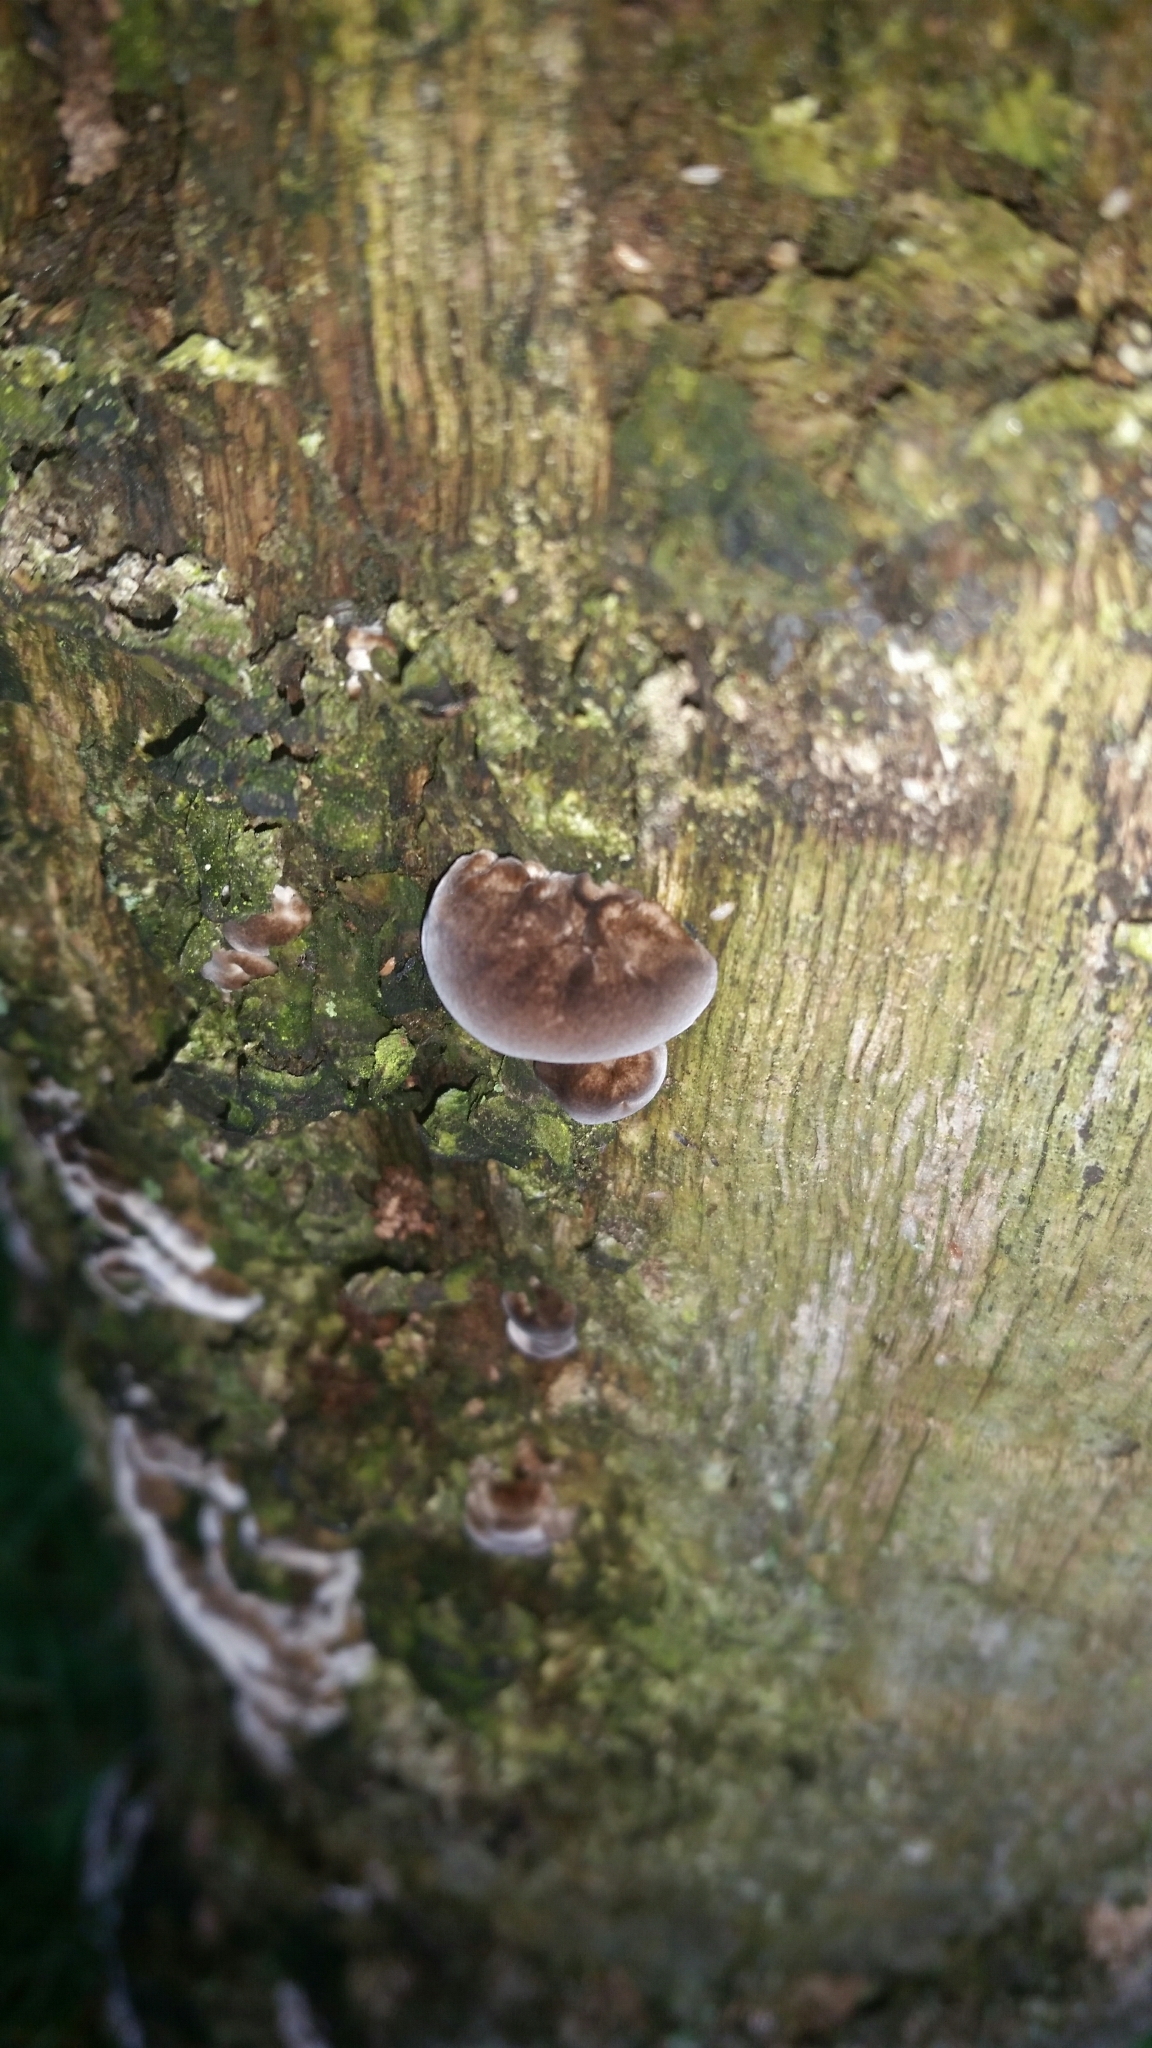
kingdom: Fungi
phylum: Basidiomycota
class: Agaricomycetes
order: Auriculariales
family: Auriculariaceae
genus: Auricularia
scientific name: Auricularia auricula-judae
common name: Jelly ear
